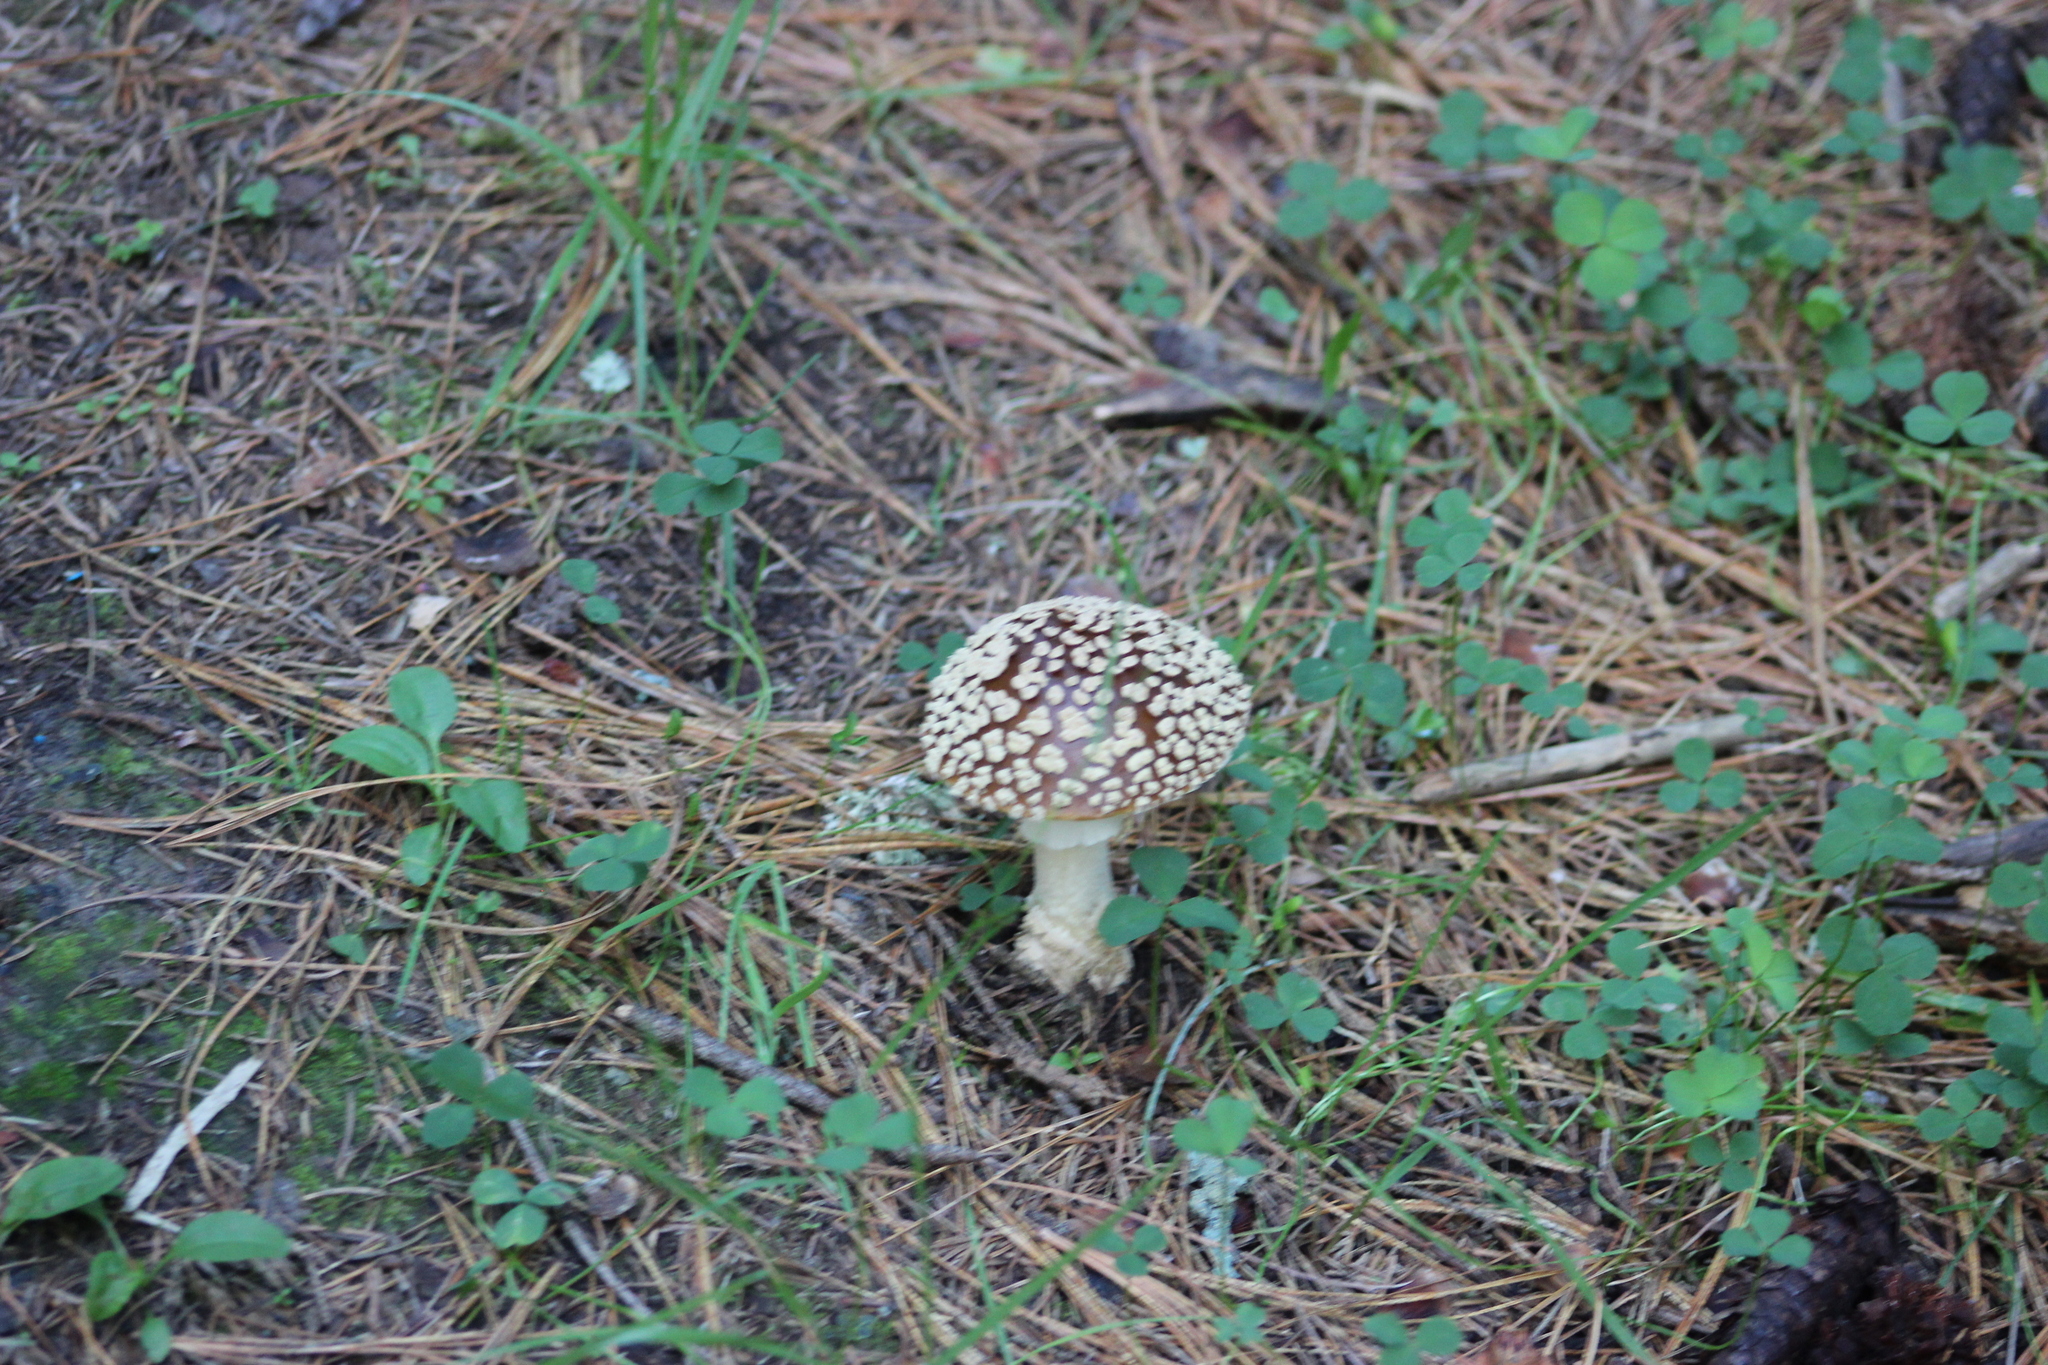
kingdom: Fungi
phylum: Basidiomycota
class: Agaricomycetes
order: Agaricales
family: Amanitaceae
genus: Amanita
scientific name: Amanita regalis
